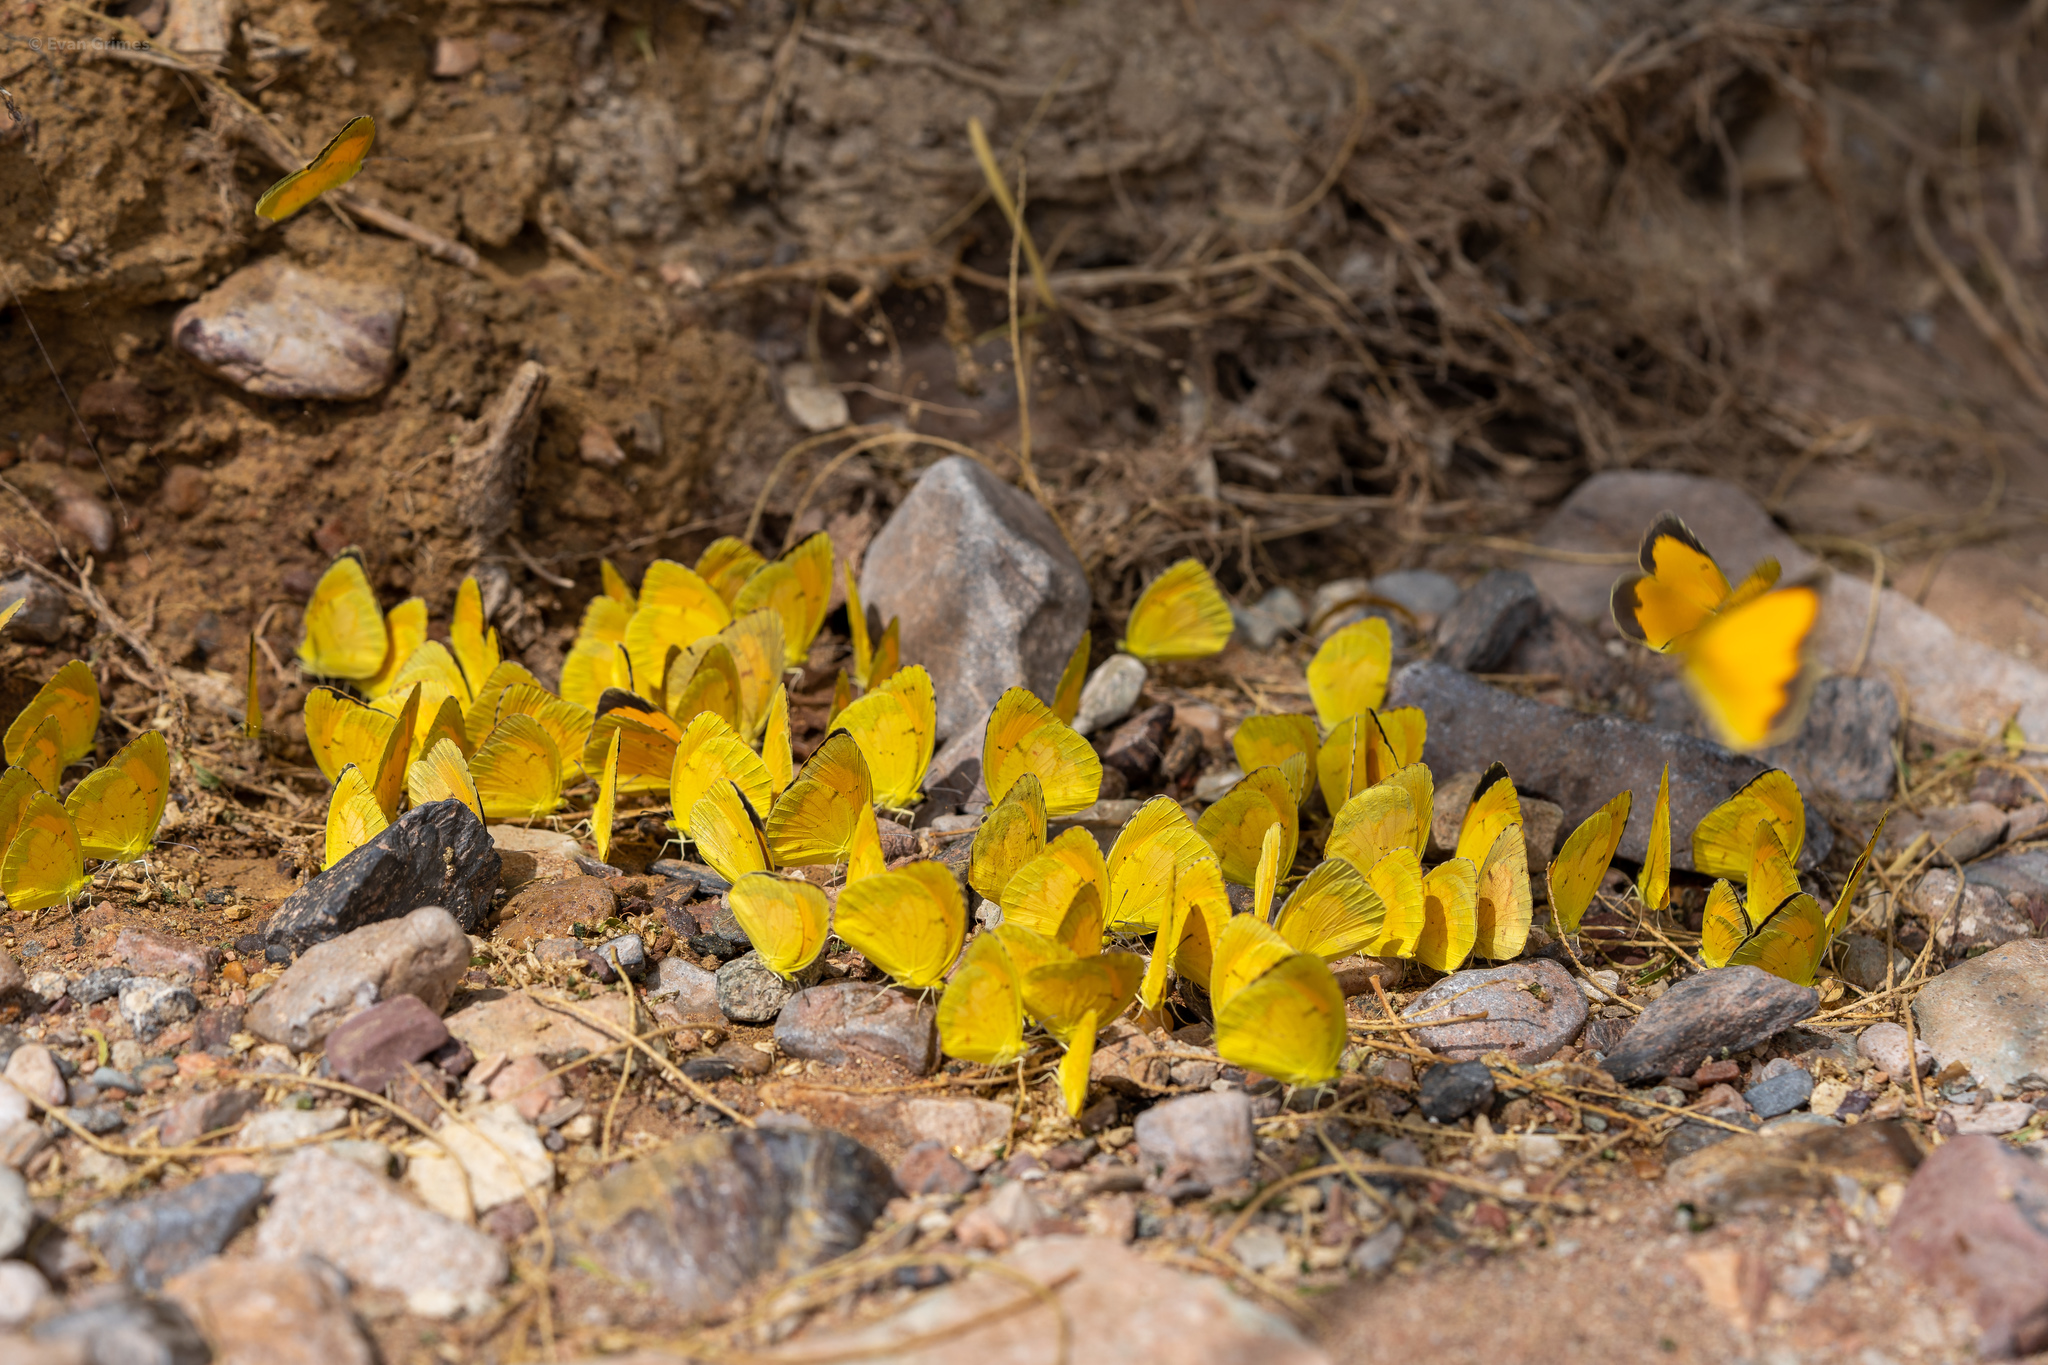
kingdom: Animalia
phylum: Arthropoda
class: Insecta
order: Lepidoptera
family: Pieridae
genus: Abaeis
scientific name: Abaeis nicippe
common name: Sleepy orange
